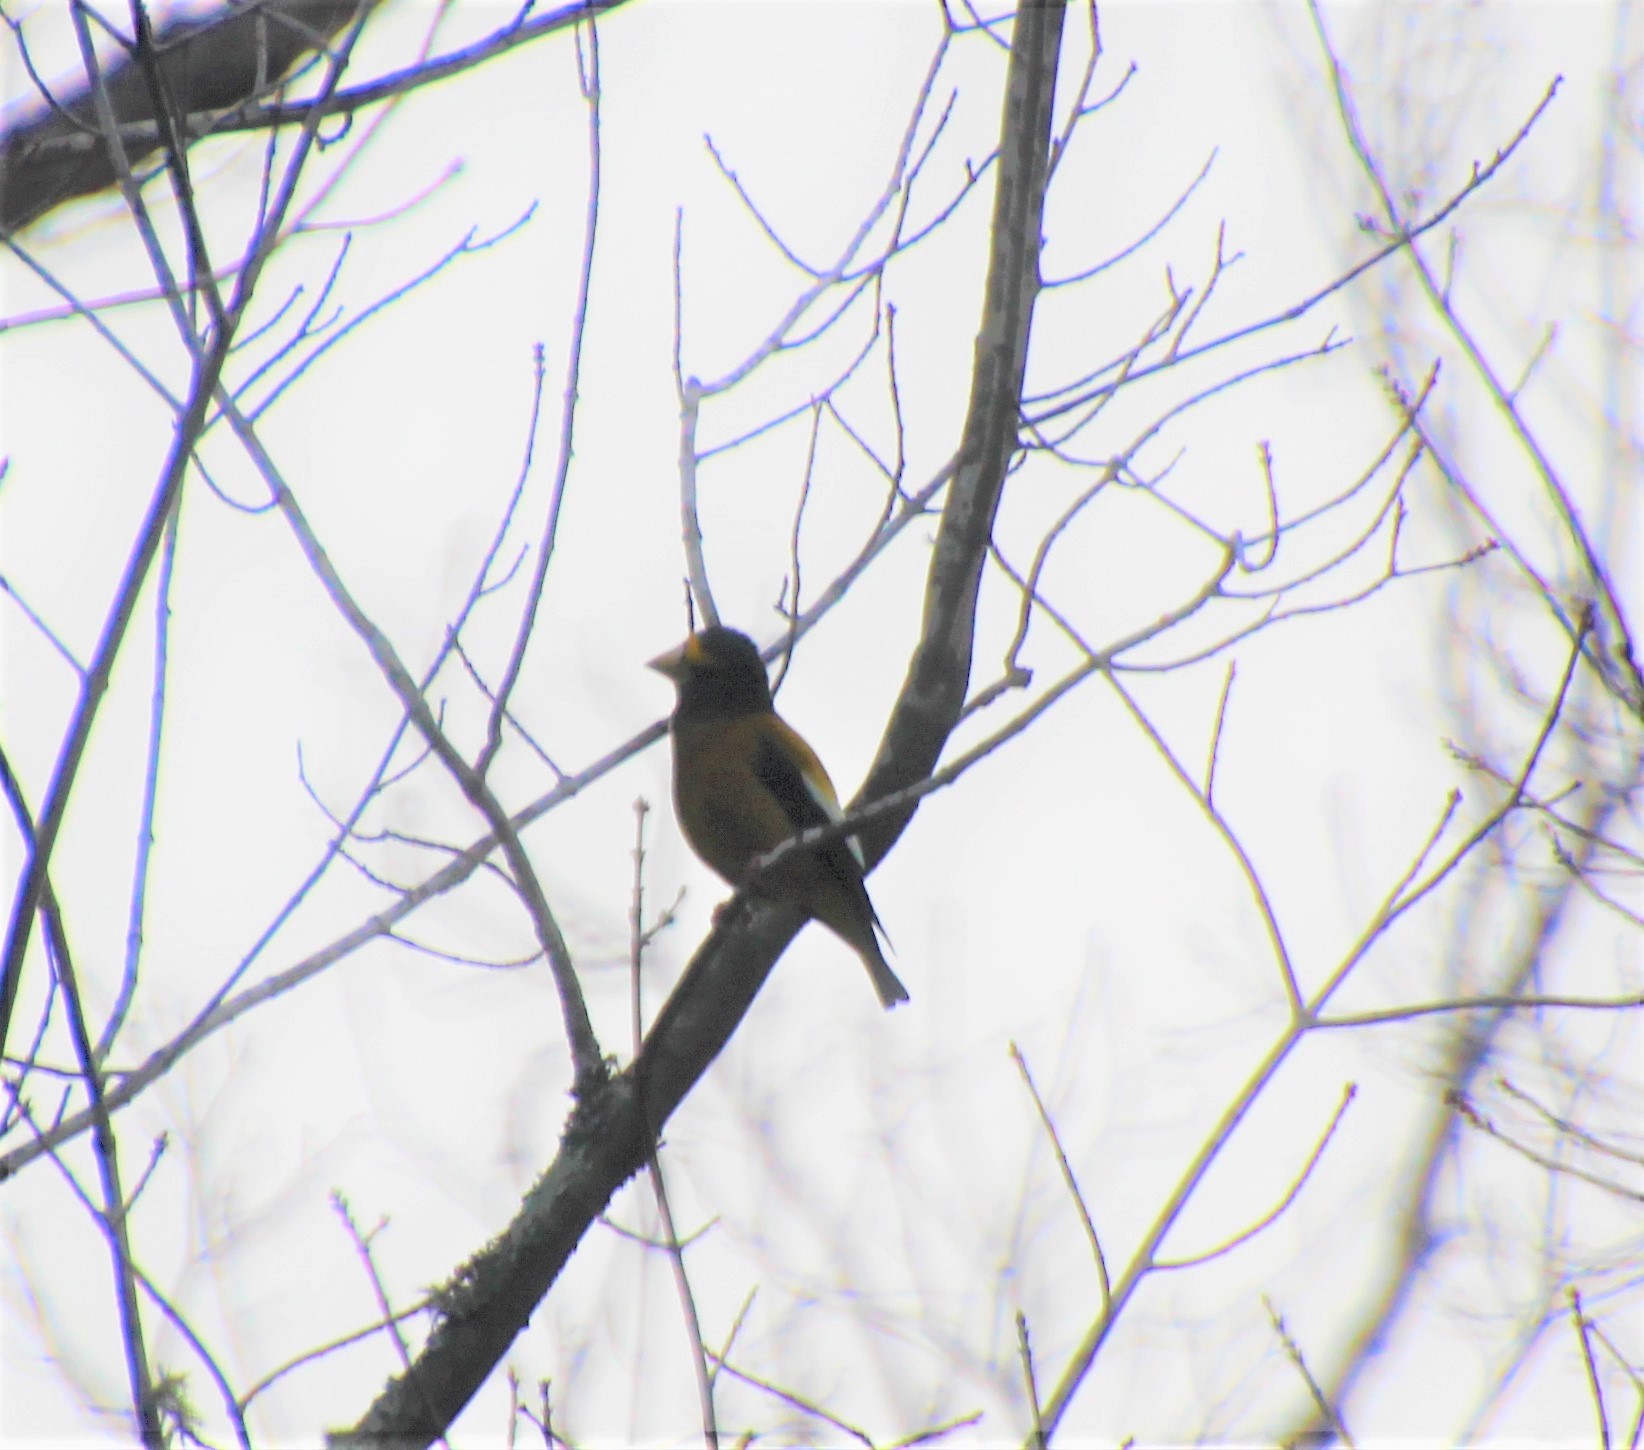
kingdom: Animalia
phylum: Chordata
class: Aves
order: Passeriformes
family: Fringillidae
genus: Hesperiphona
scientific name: Hesperiphona vespertina
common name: Evening grosbeak
